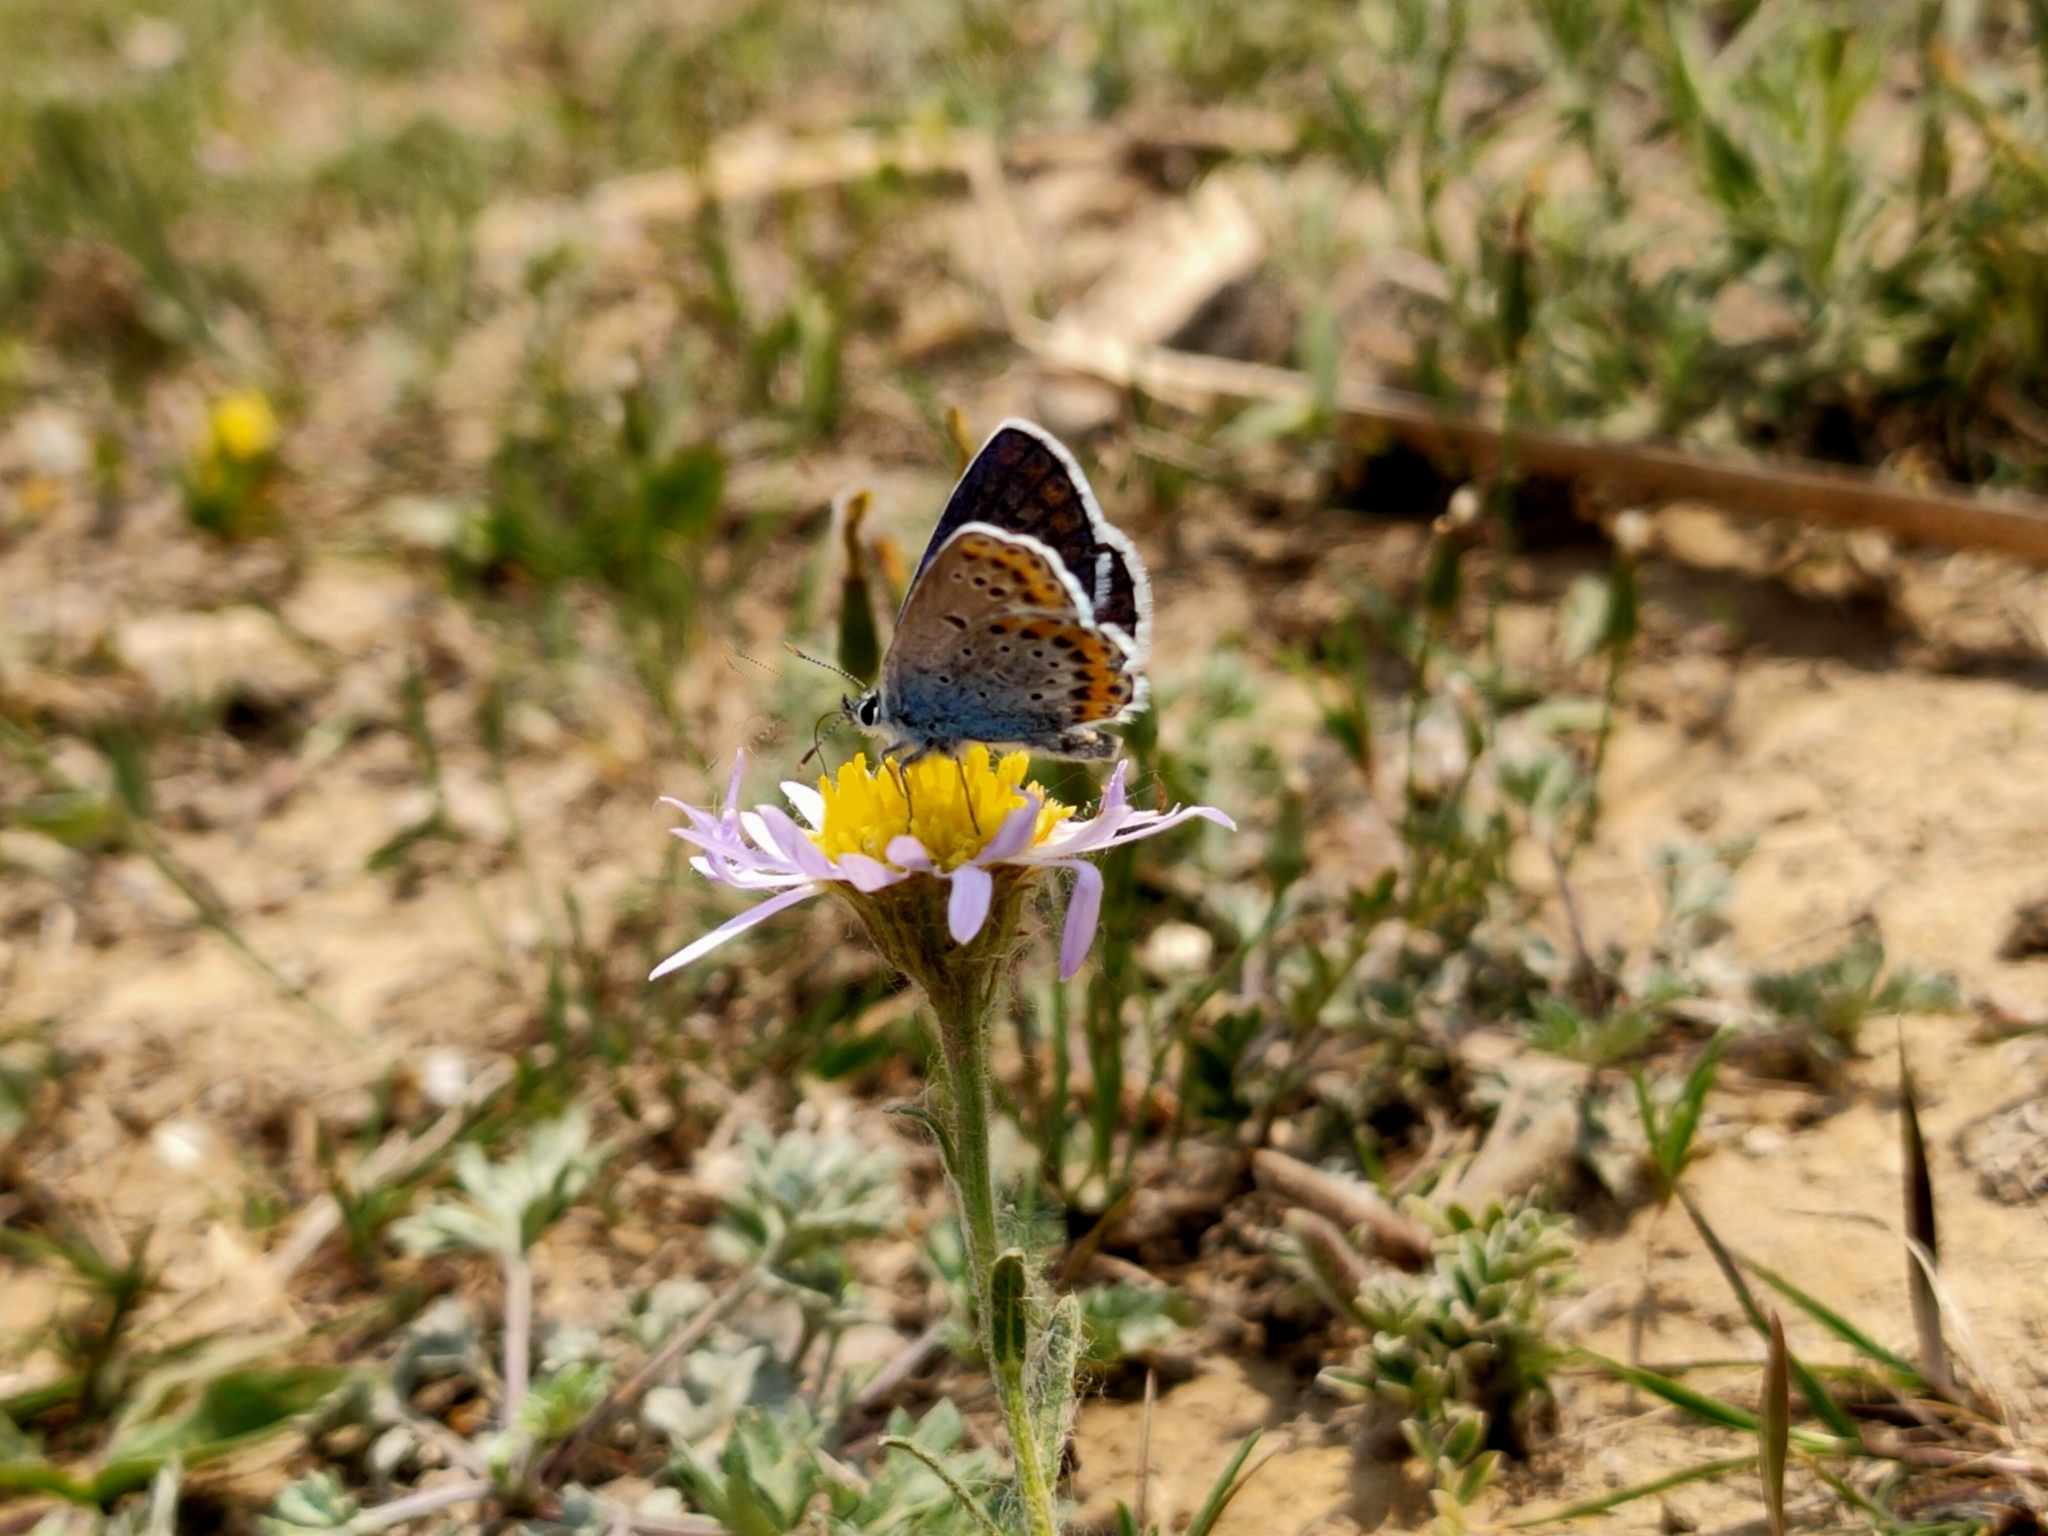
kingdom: Animalia
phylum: Arthropoda
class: Insecta
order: Lepidoptera
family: Lycaenidae
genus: Plebejus
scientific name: Plebejus argyrognomon
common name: Reverdin's blue
